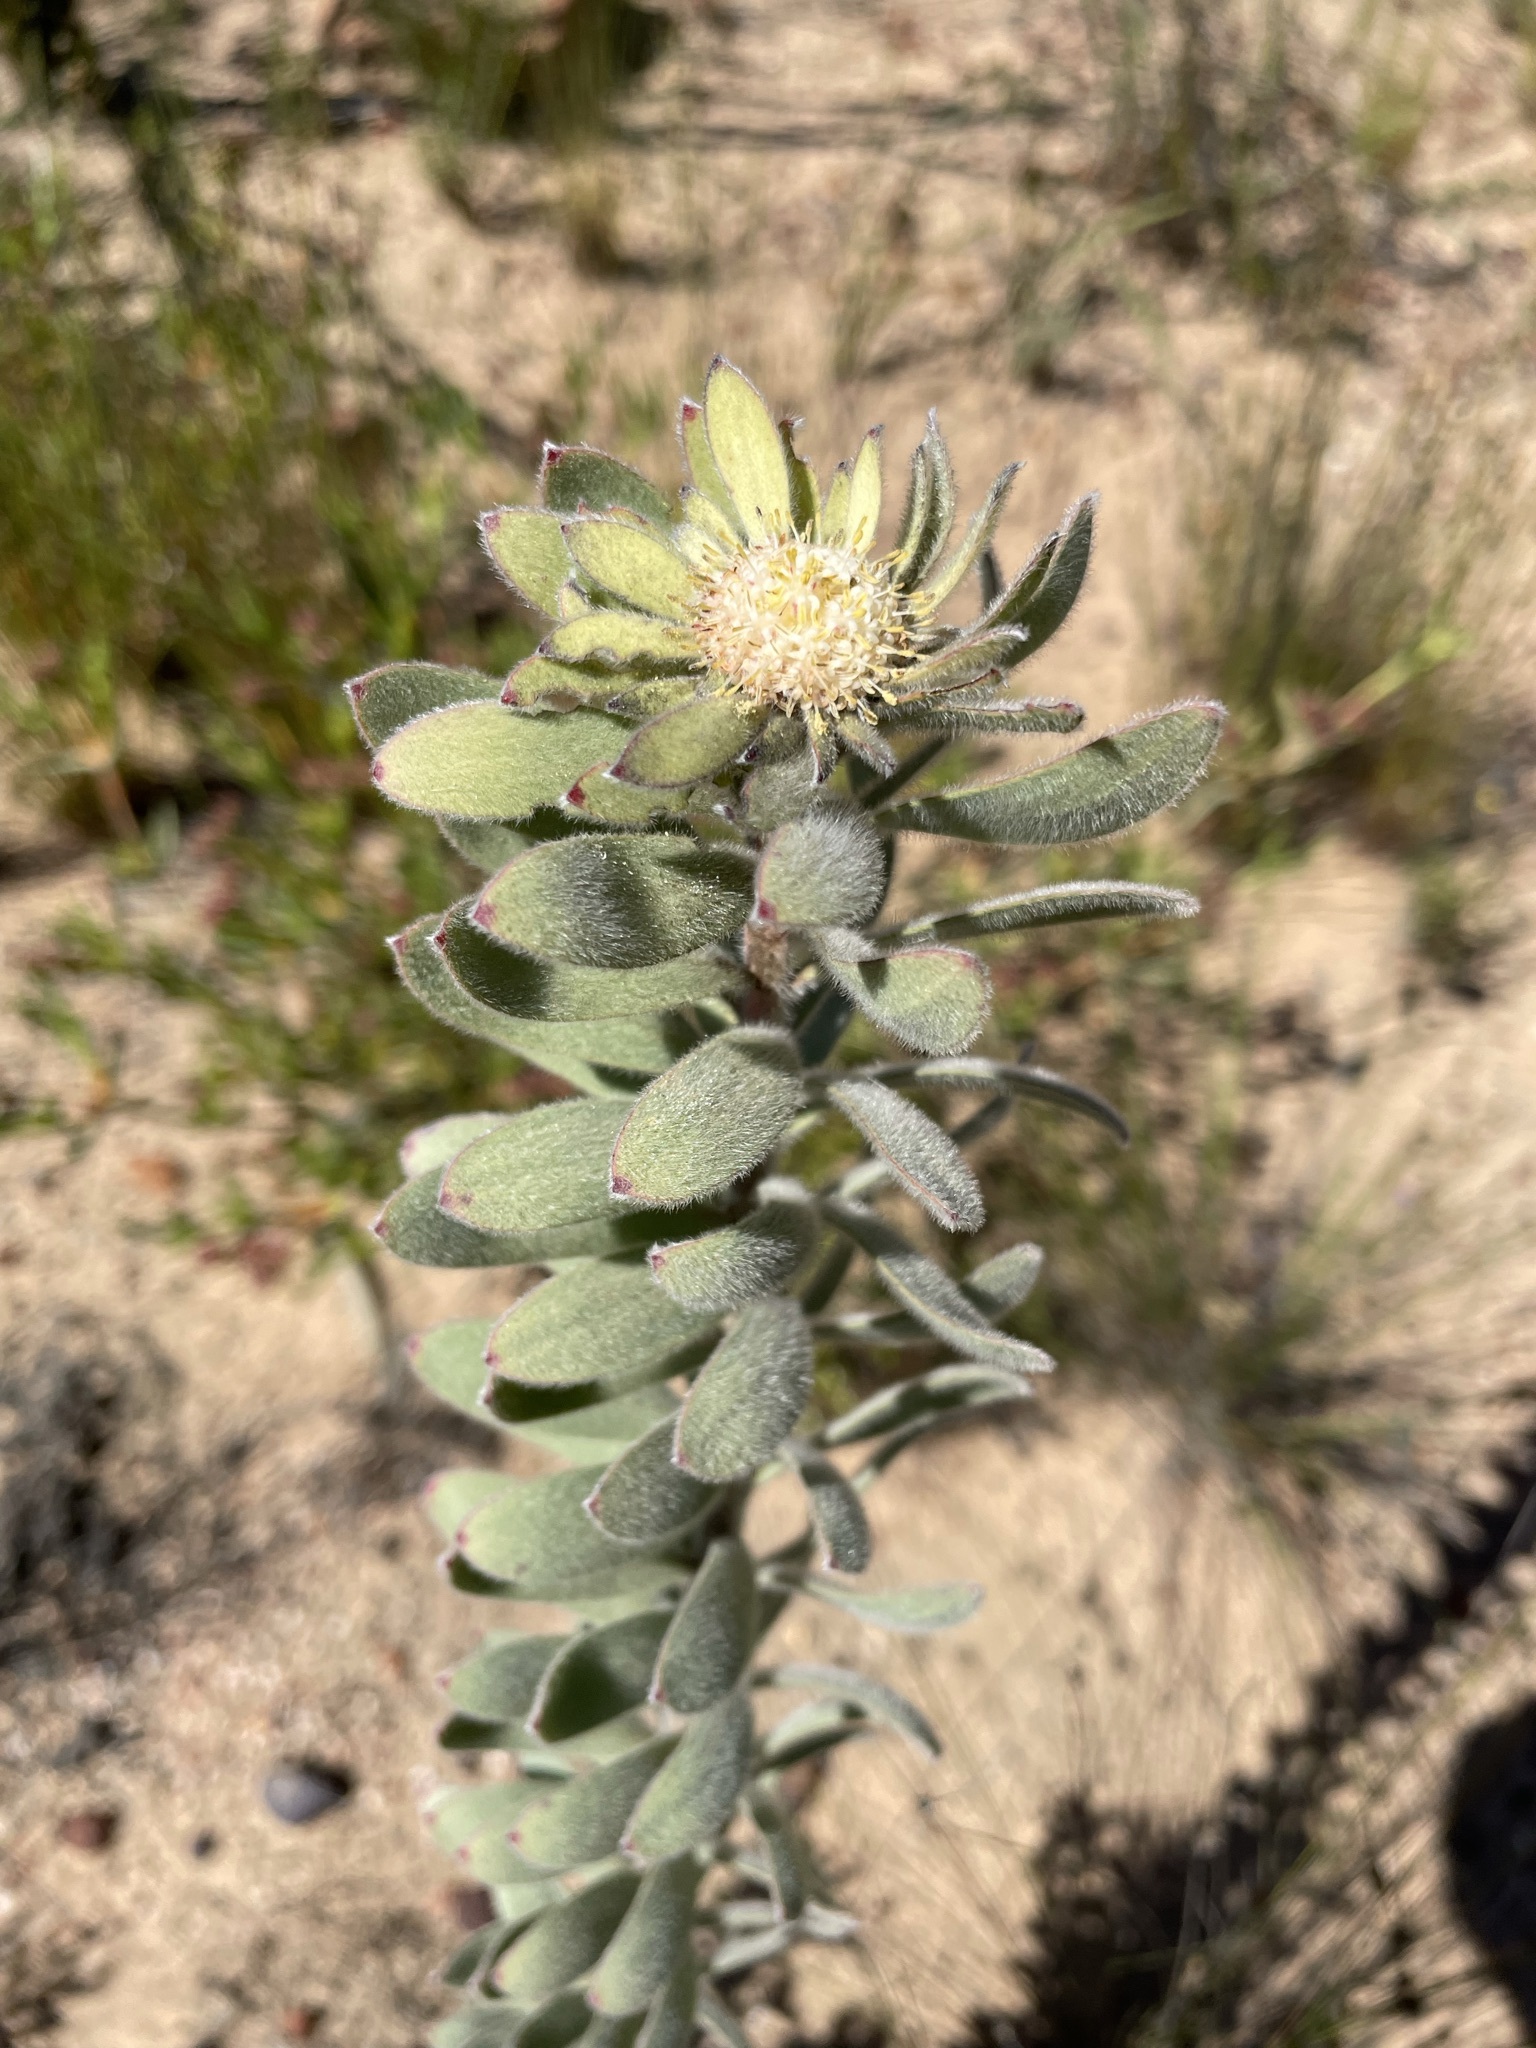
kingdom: Plantae
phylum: Tracheophyta
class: Magnoliopsida
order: Proteales
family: Proteaceae
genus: Leucadendron
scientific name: Leucadendron pubescens
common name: Grey conebush
